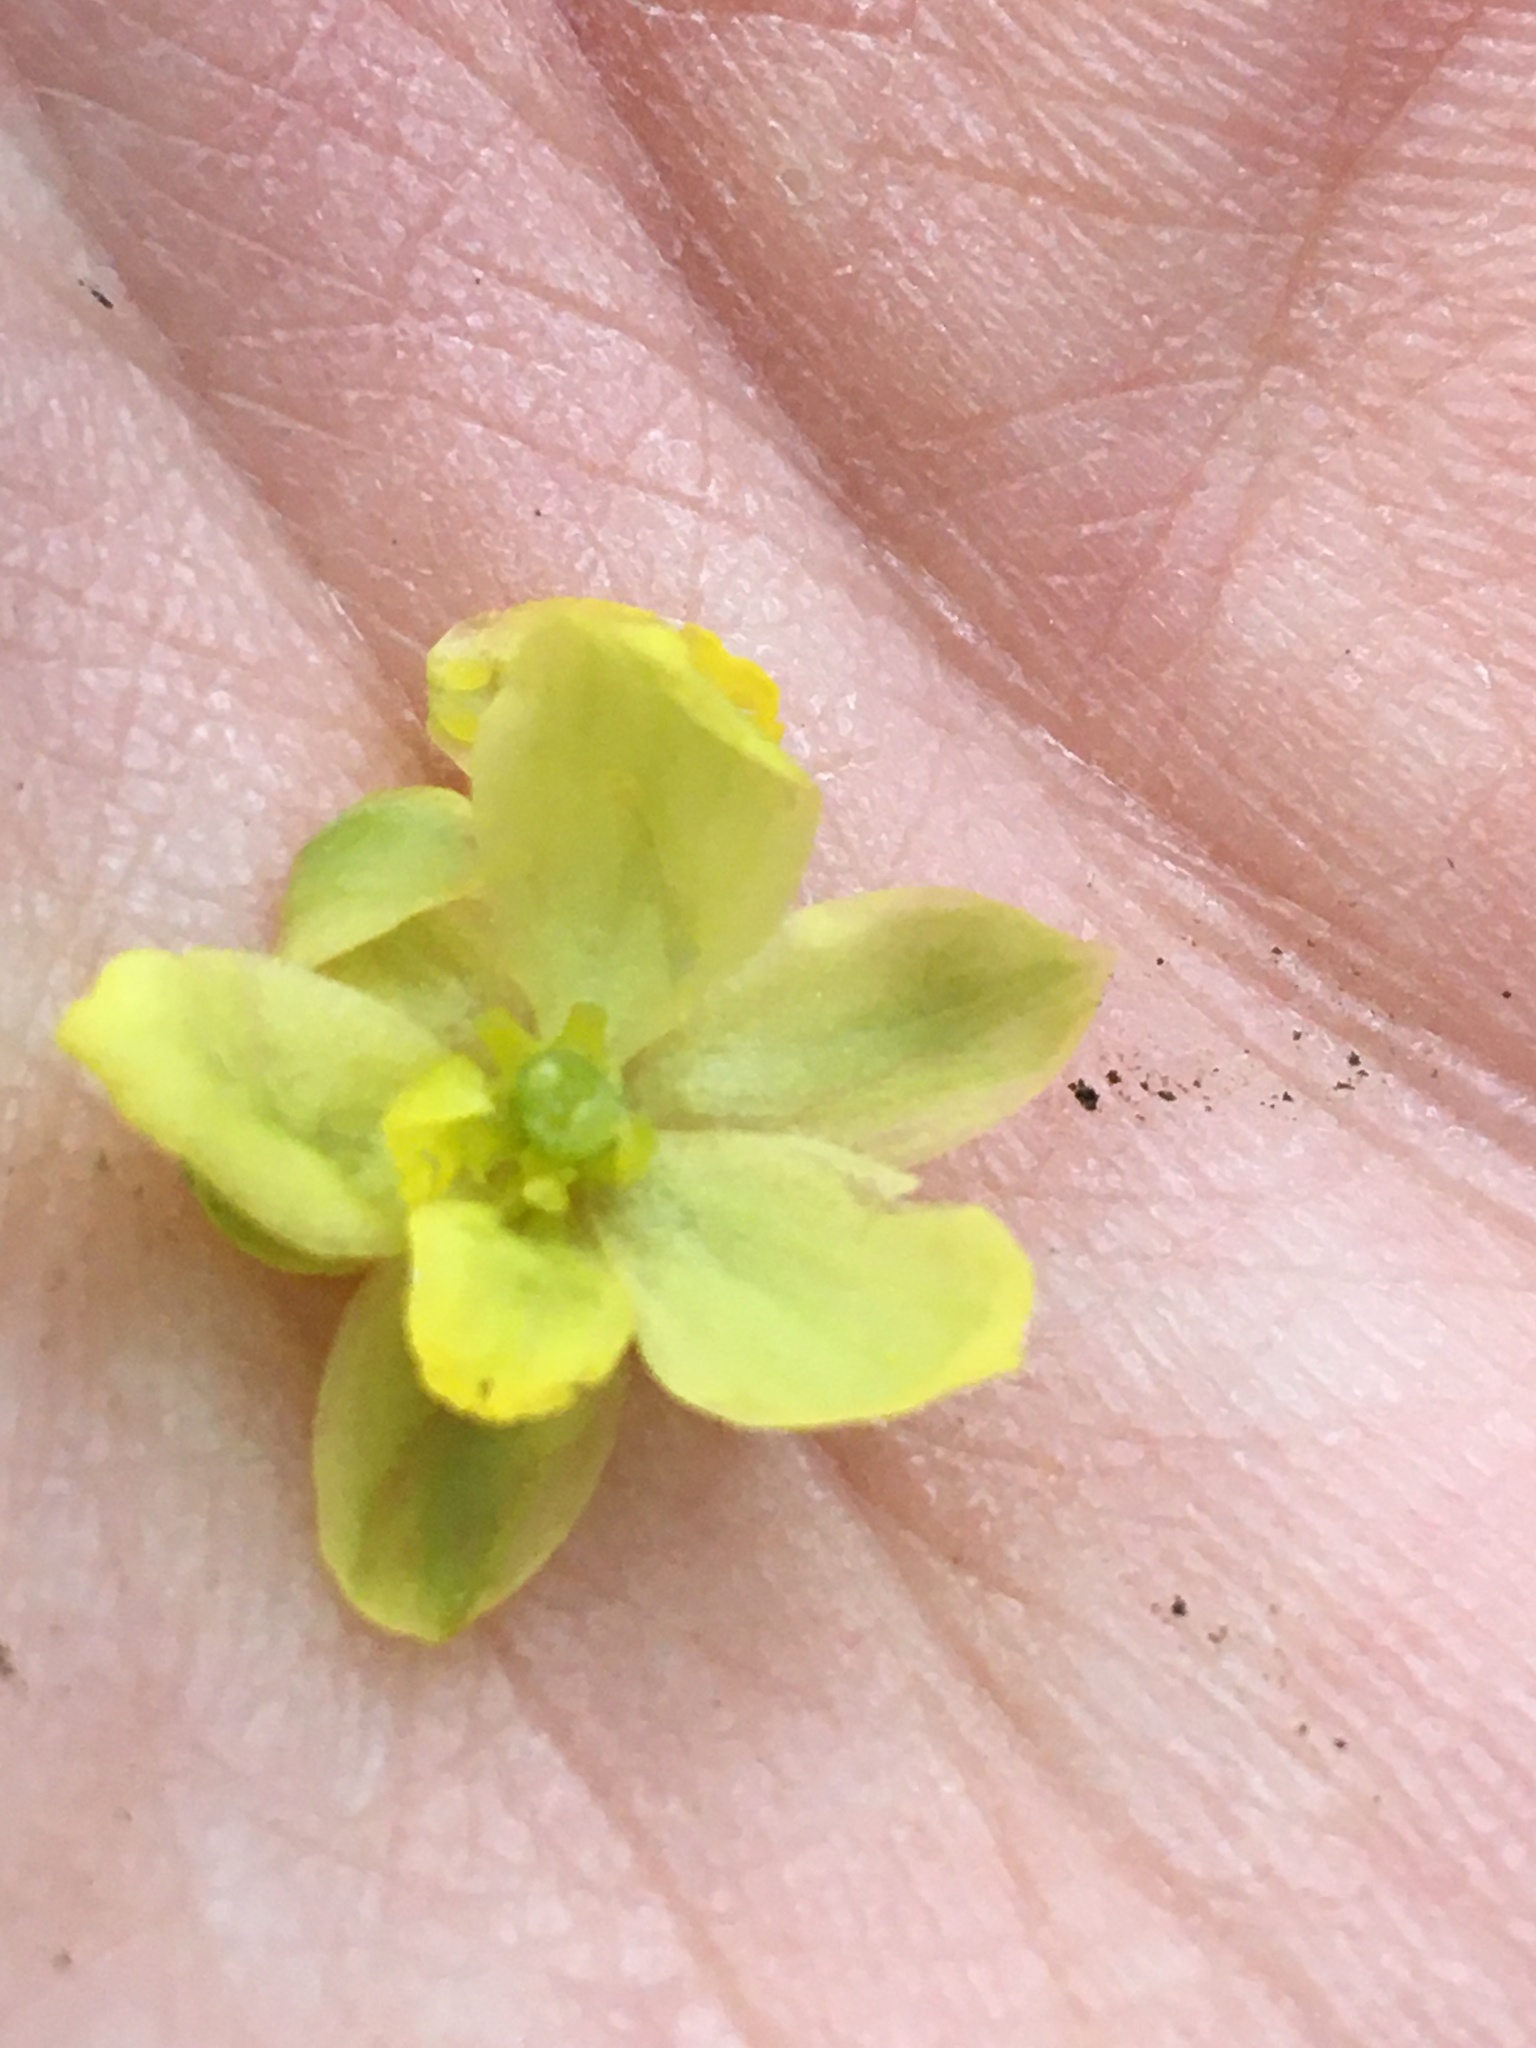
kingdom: Plantae
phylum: Tracheophyta
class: Magnoliopsida
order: Ranunculales
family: Berberidaceae
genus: Mahonia
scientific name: Mahonia nervosa
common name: Cascade oregon-grape
